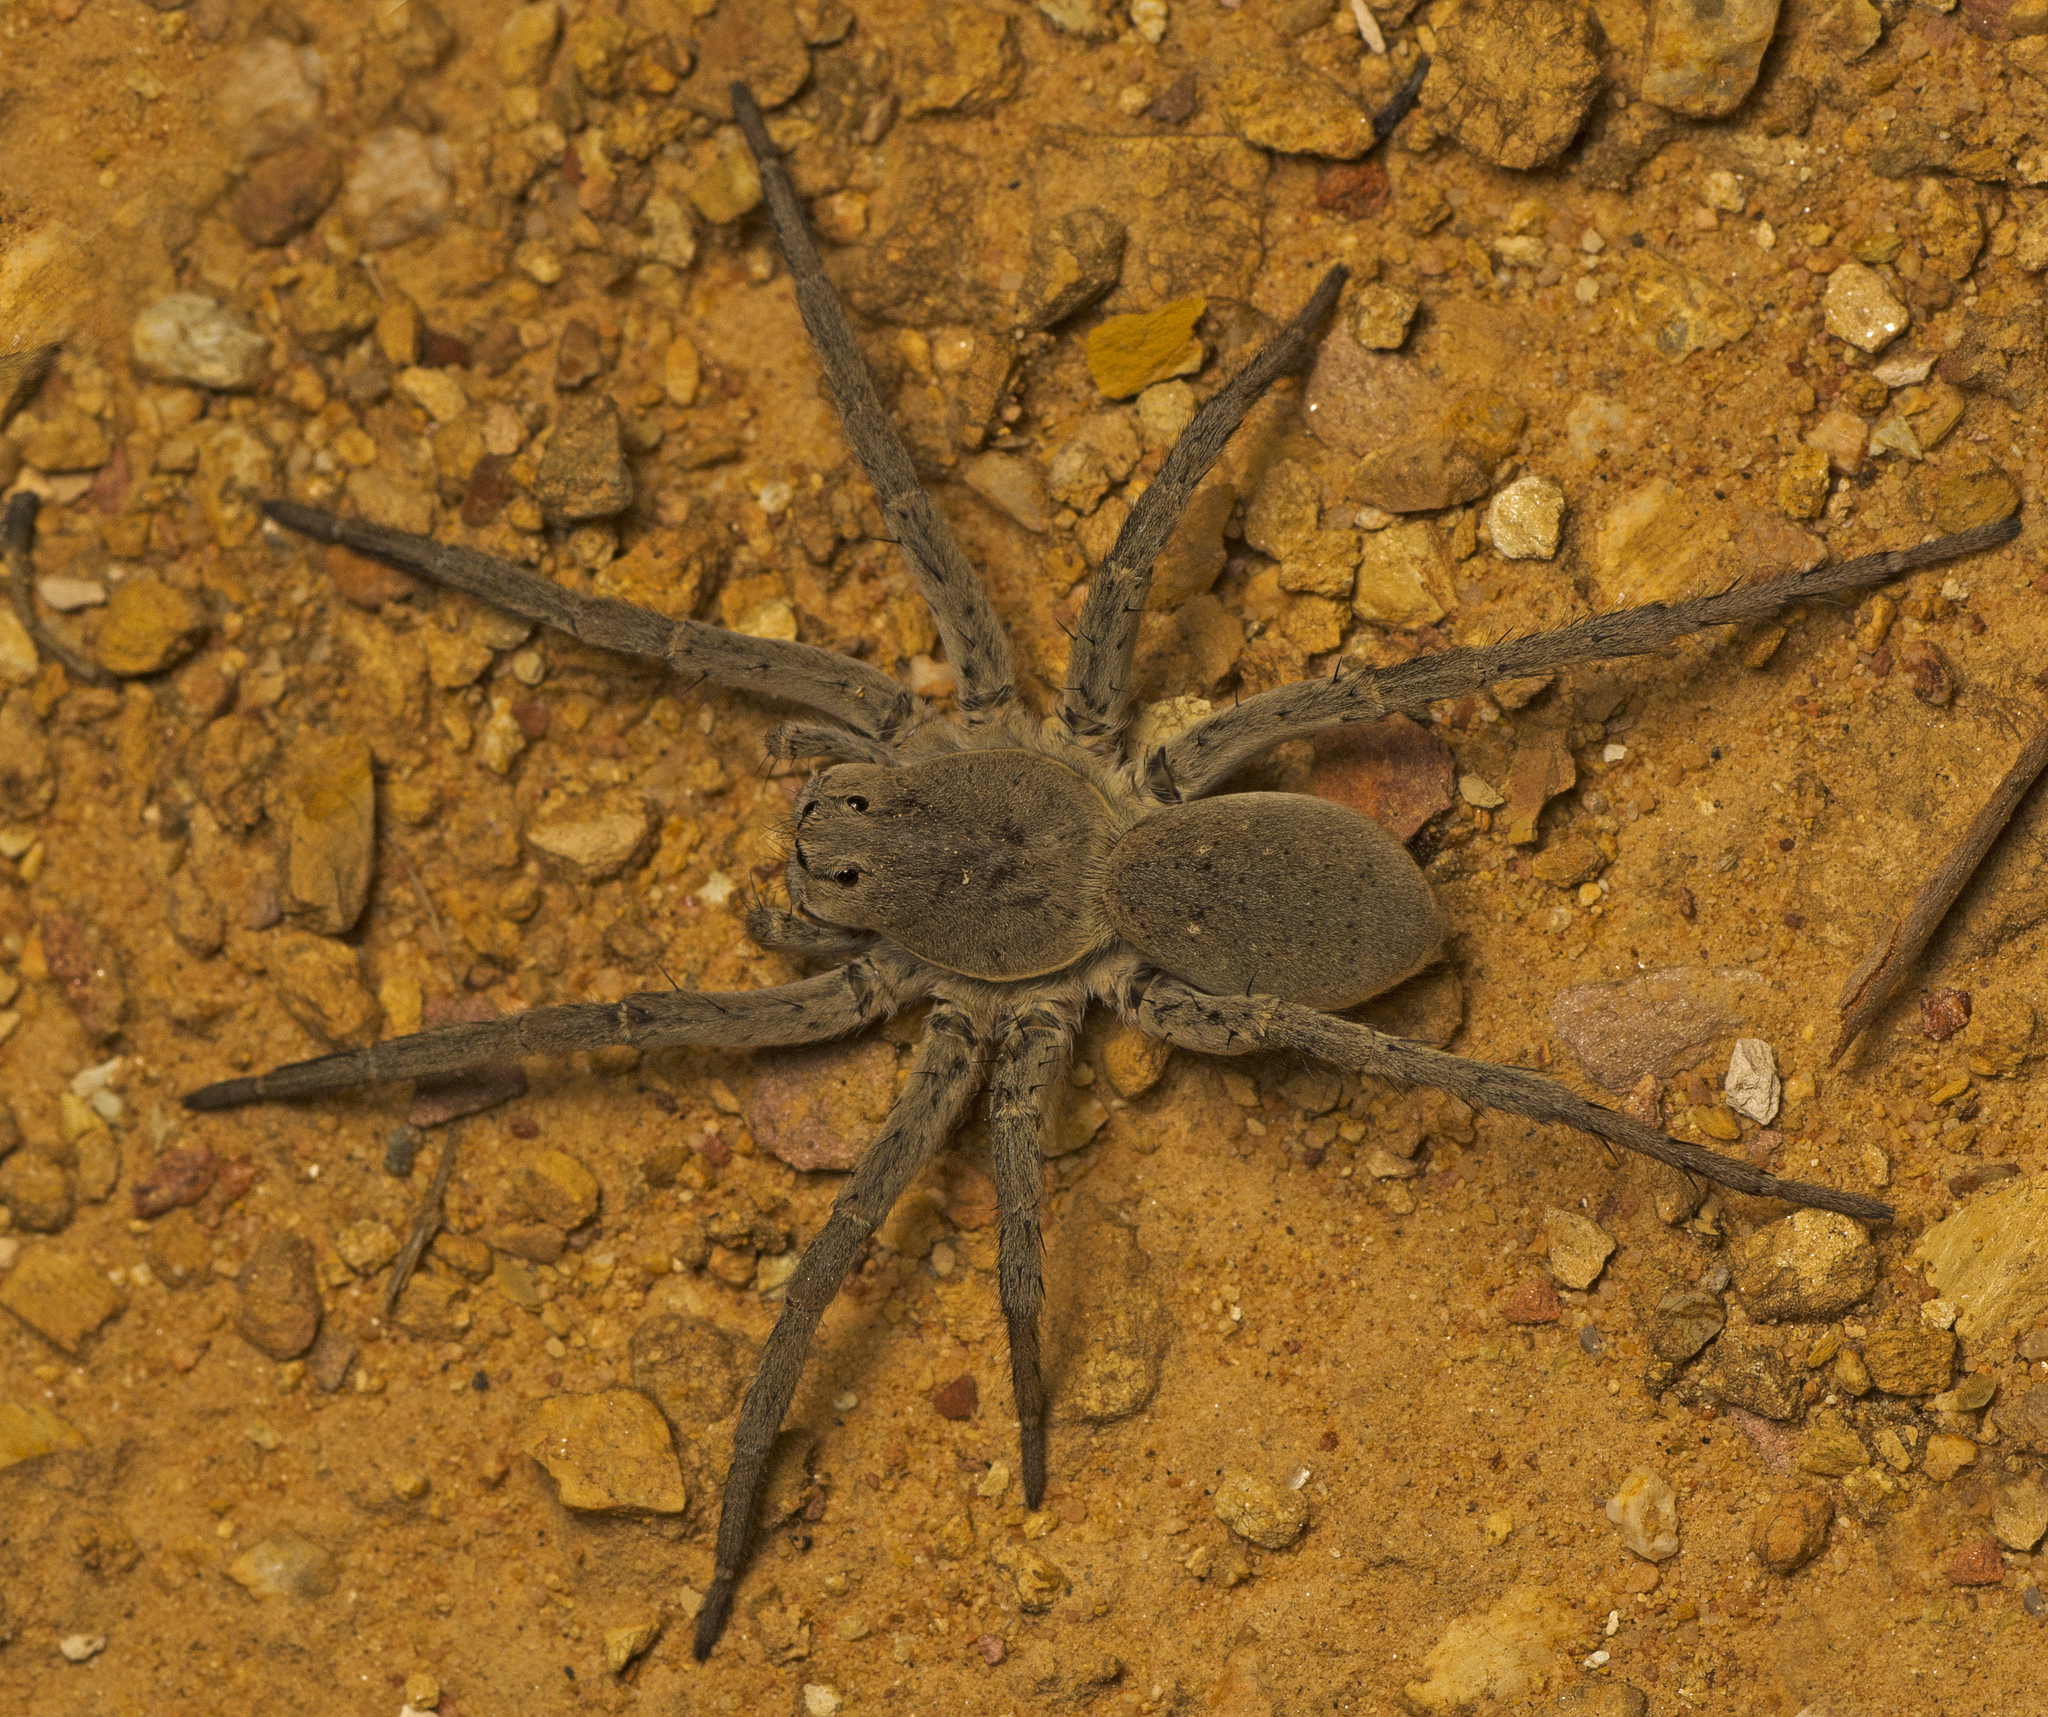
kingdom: Animalia
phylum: Arthropoda
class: Arachnida
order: Araneae
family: Lycosidae
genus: Portacosa
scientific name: Portacosa cinerea
